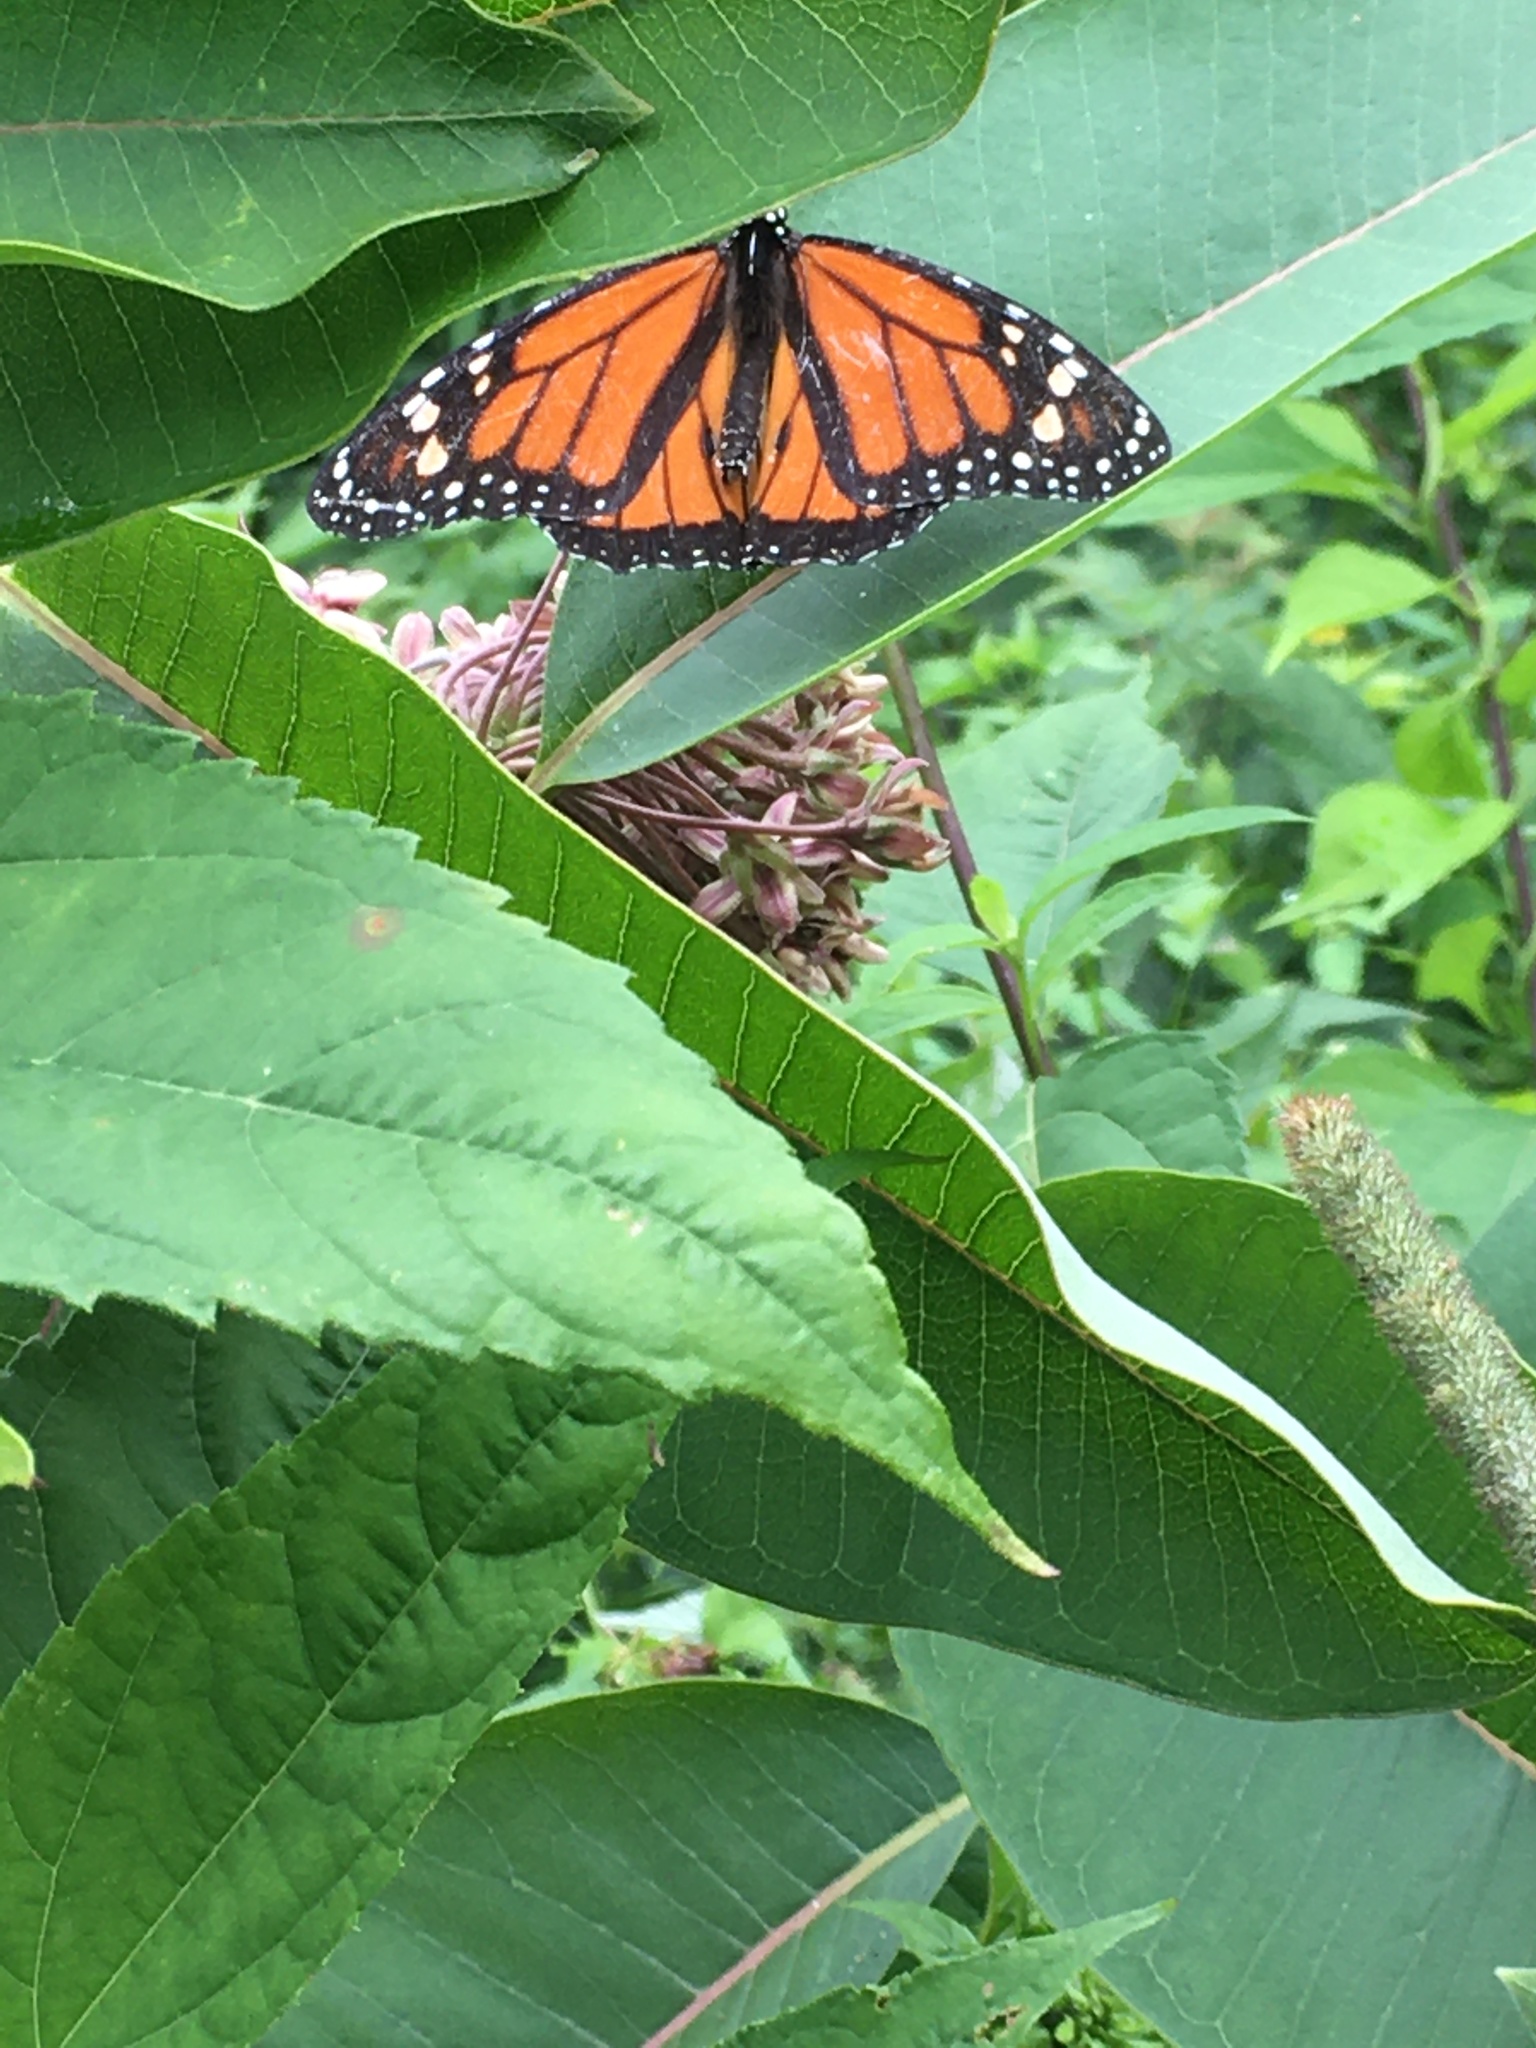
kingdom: Animalia
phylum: Arthropoda
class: Insecta
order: Lepidoptera
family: Nymphalidae
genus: Danaus
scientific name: Danaus plexippus
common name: Monarch
